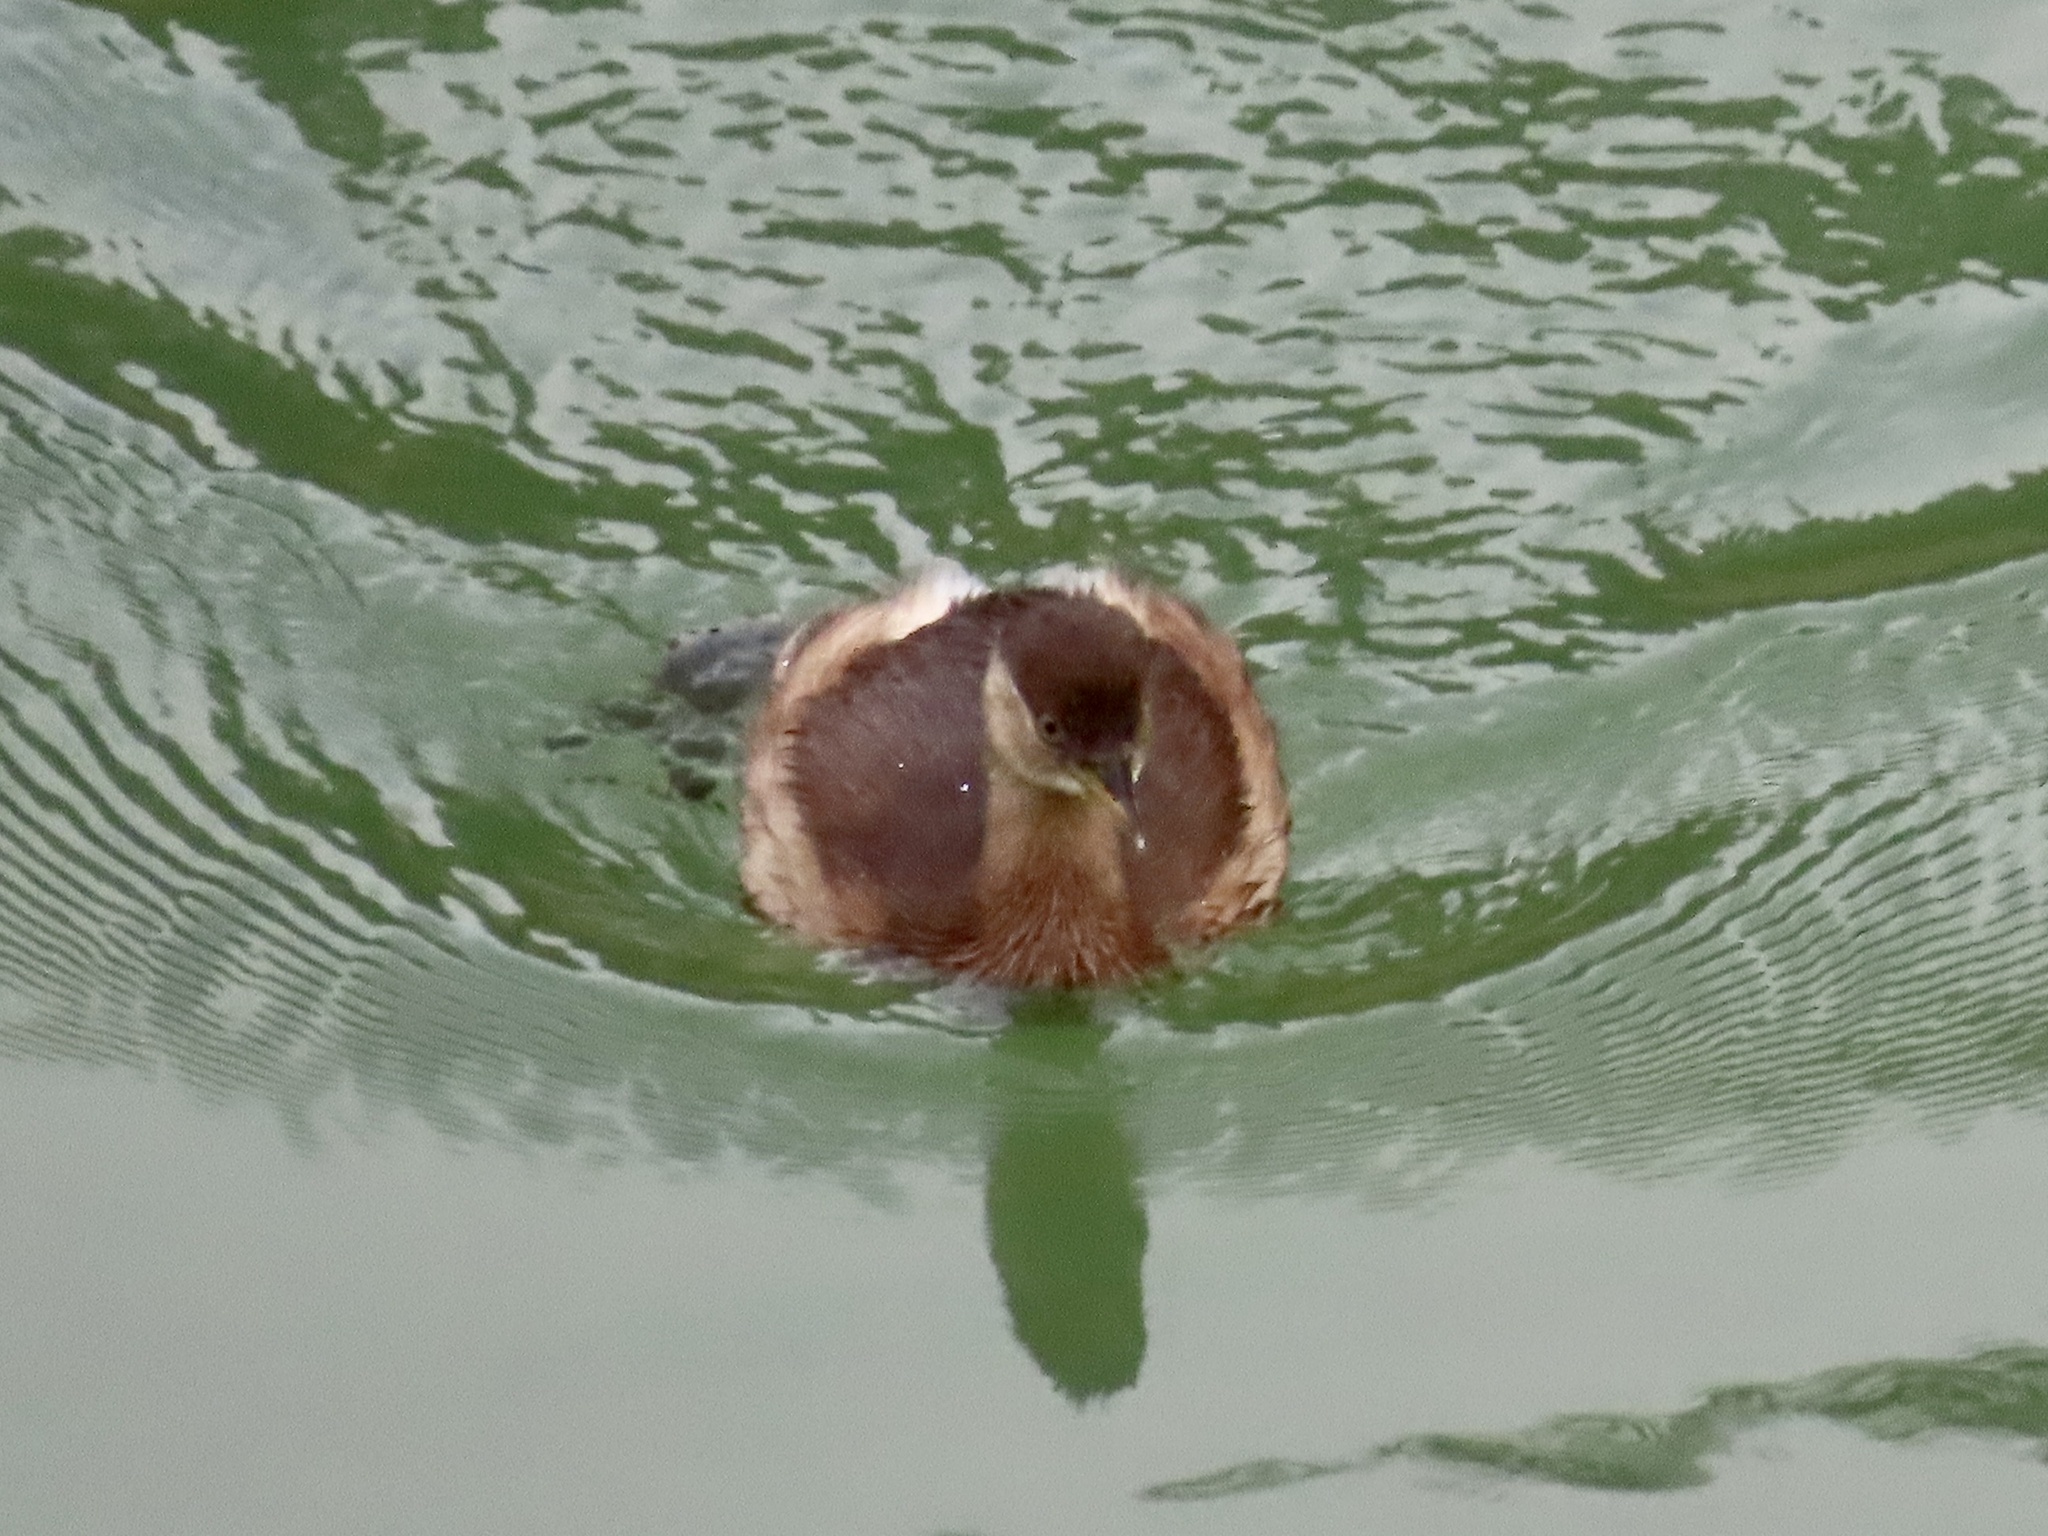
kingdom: Animalia
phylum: Chordata
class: Aves
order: Podicipediformes
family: Podicipedidae
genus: Tachybaptus
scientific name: Tachybaptus ruficollis
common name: Little grebe
